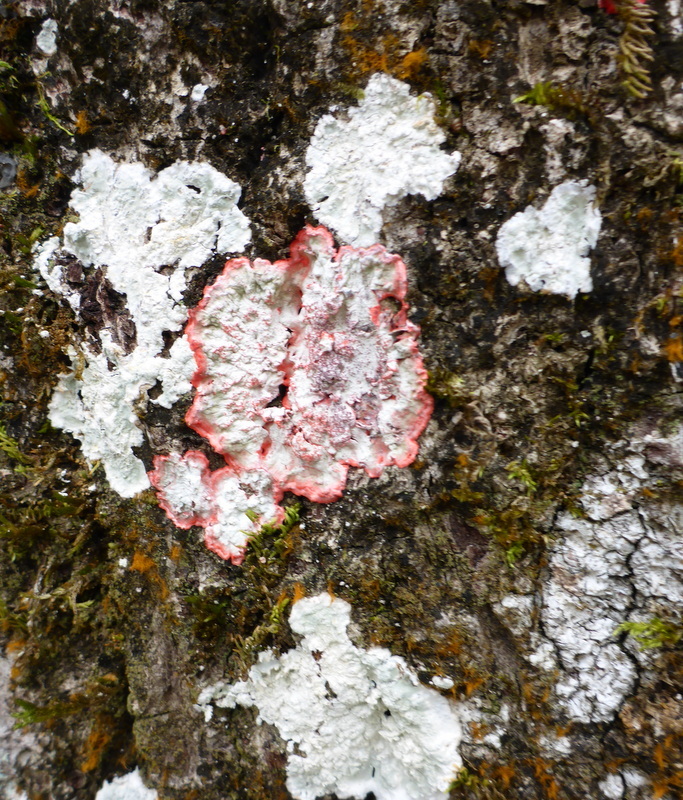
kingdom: Fungi
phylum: Ascomycota
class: Arthoniomycetes
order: Arthoniales
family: Arthoniaceae
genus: Herpothallon
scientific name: Herpothallon rubrocinctum
